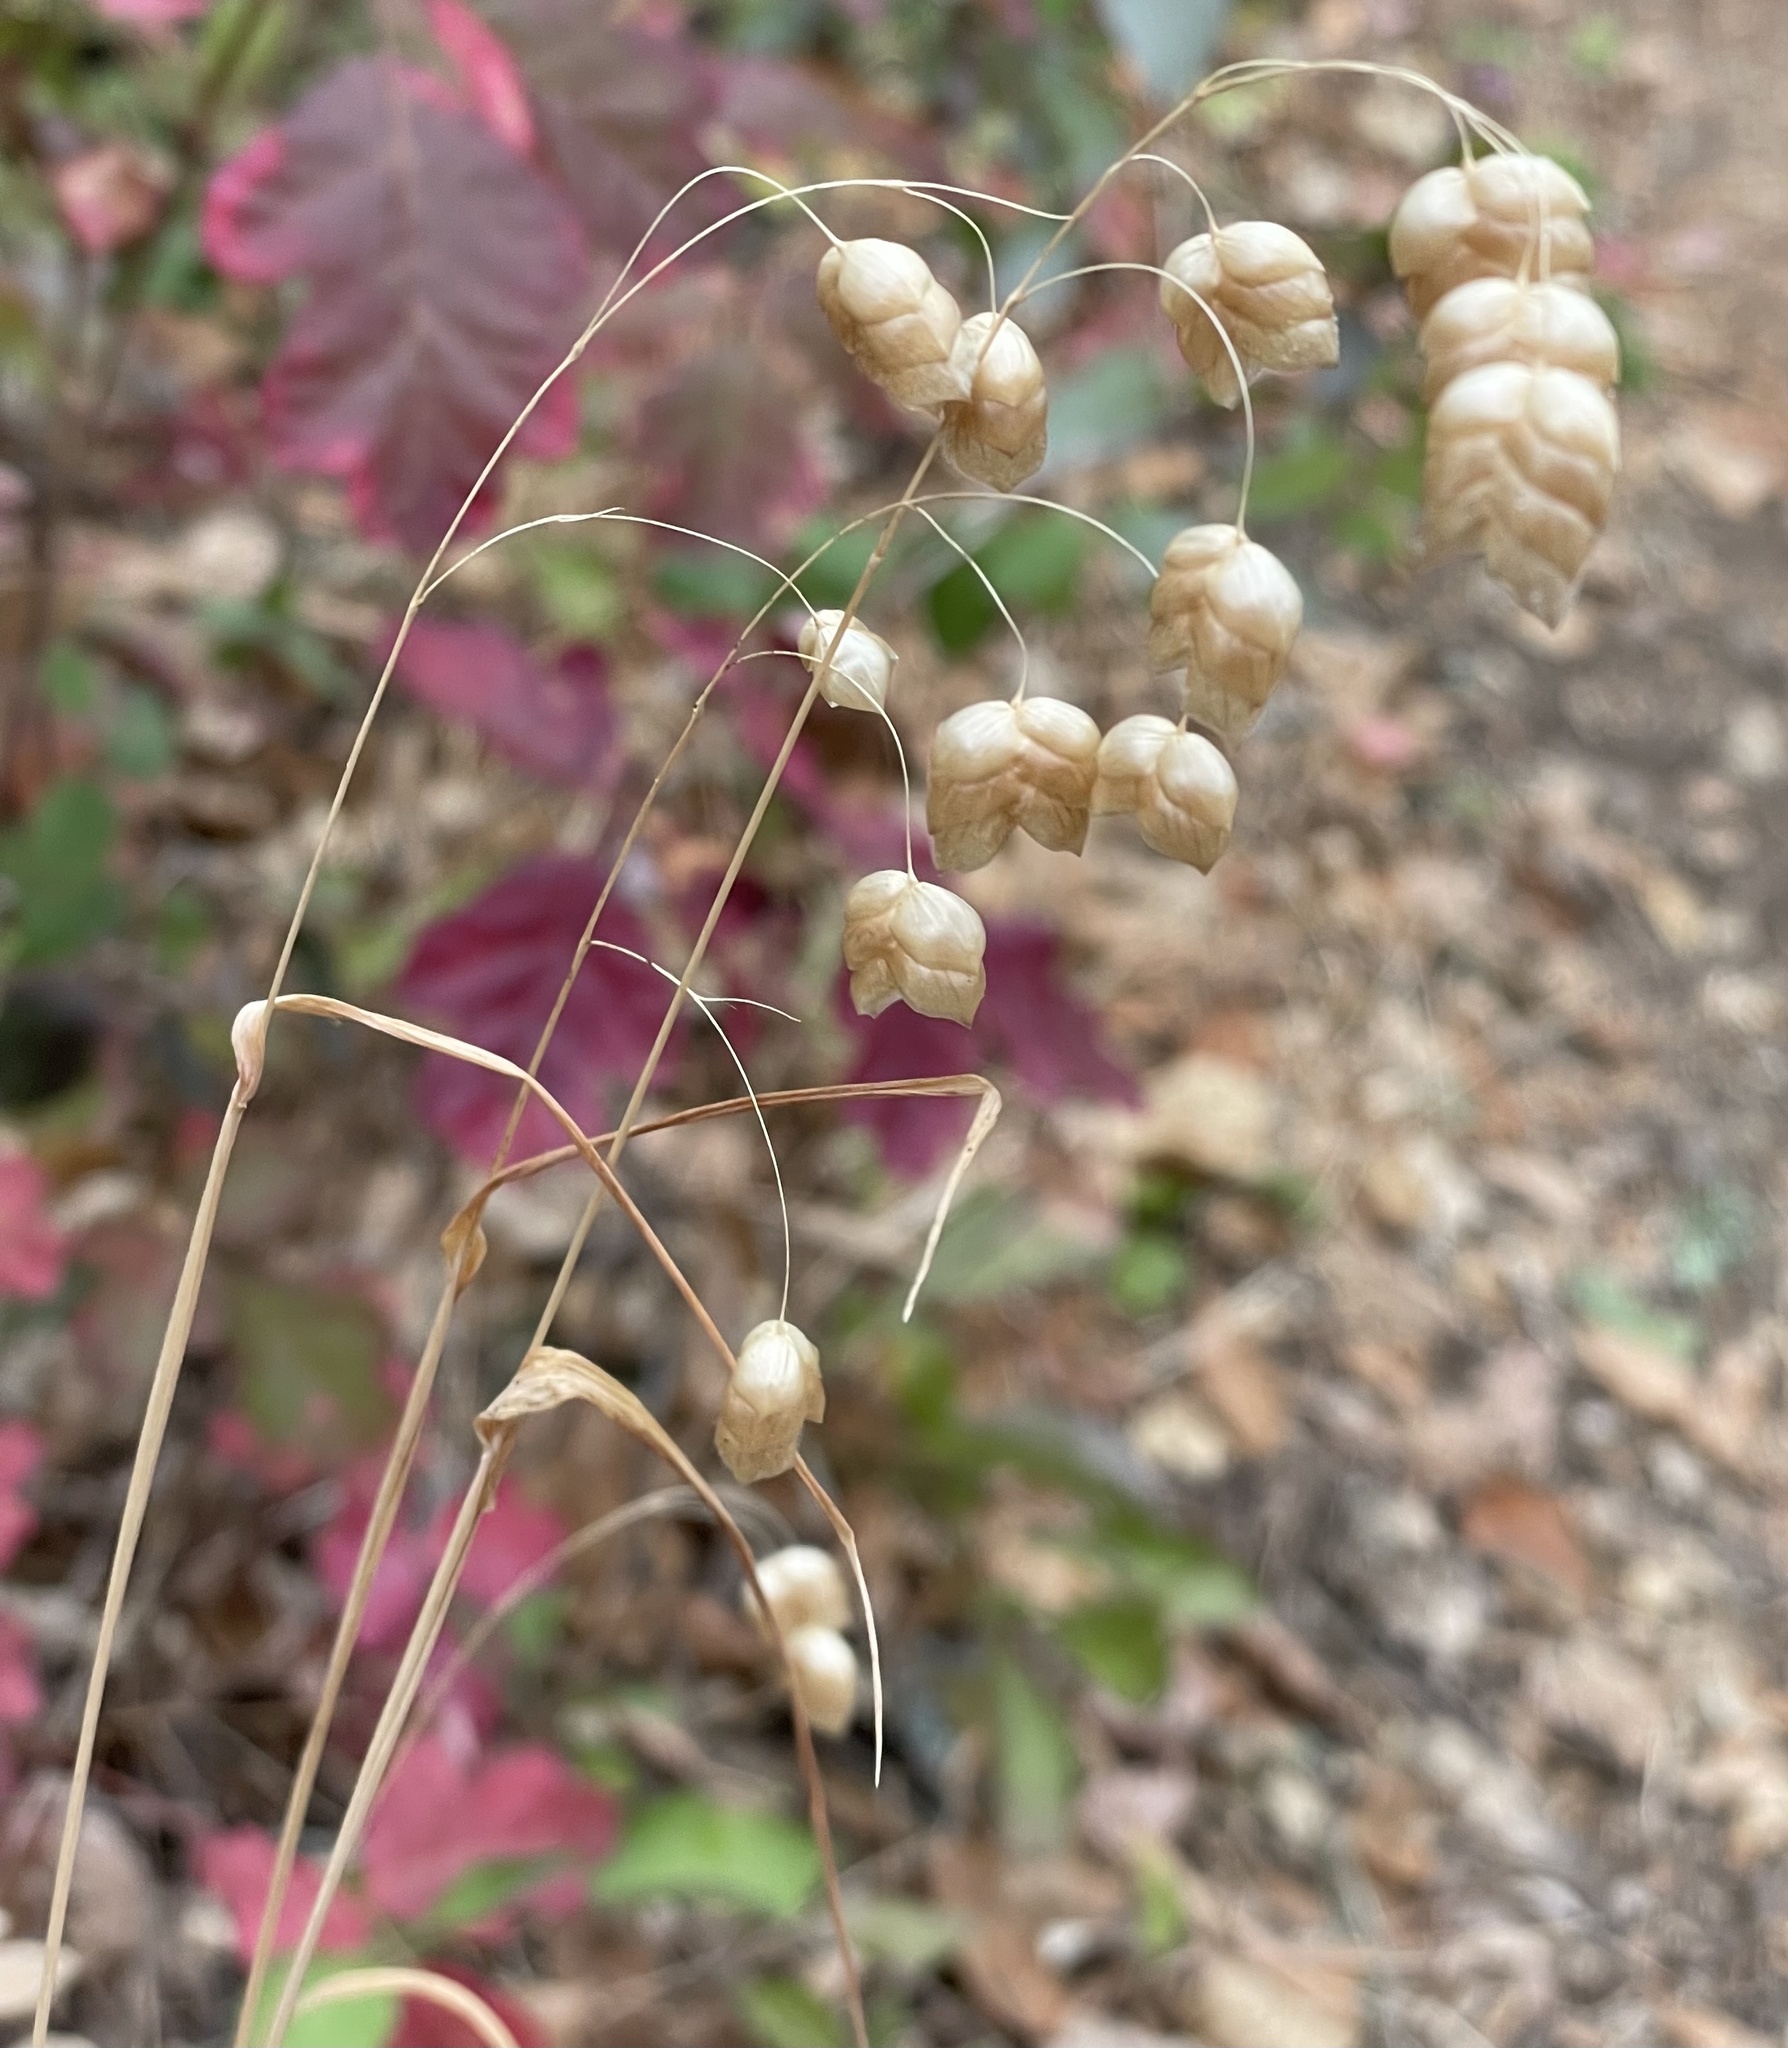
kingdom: Plantae
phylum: Tracheophyta
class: Liliopsida
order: Poales
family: Poaceae
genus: Briza
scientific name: Briza maxima
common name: Big quakinggrass
